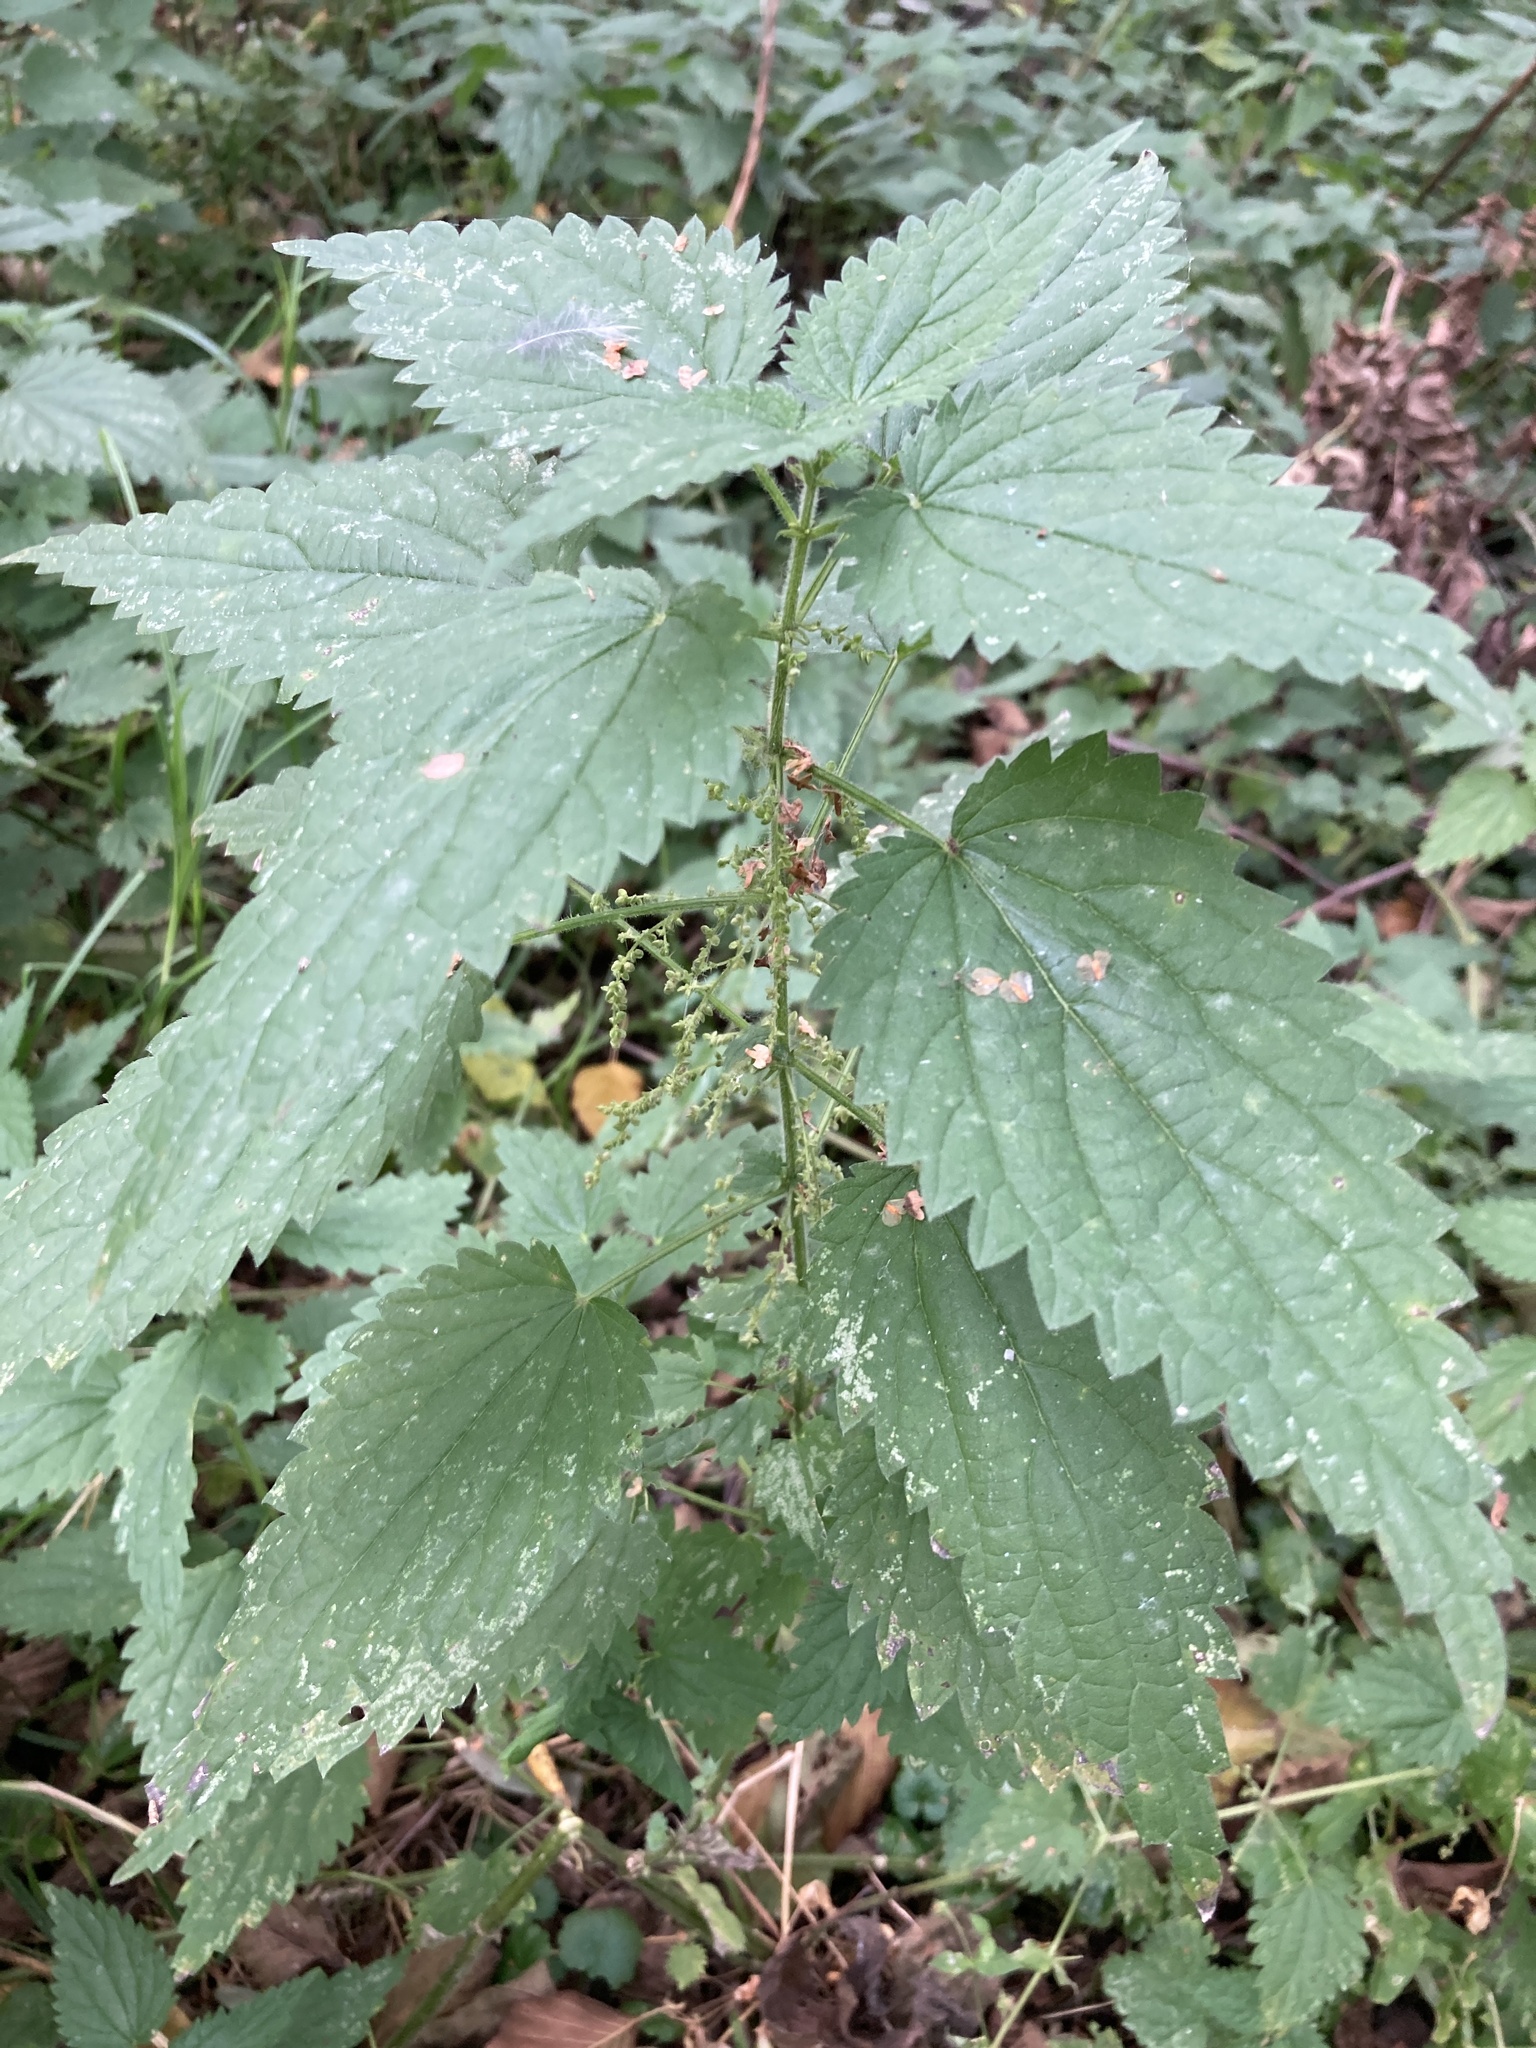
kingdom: Plantae
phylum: Tracheophyta
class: Magnoliopsida
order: Rosales
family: Urticaceae
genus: Urtica
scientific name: Urtica dioica
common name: Common nettle
